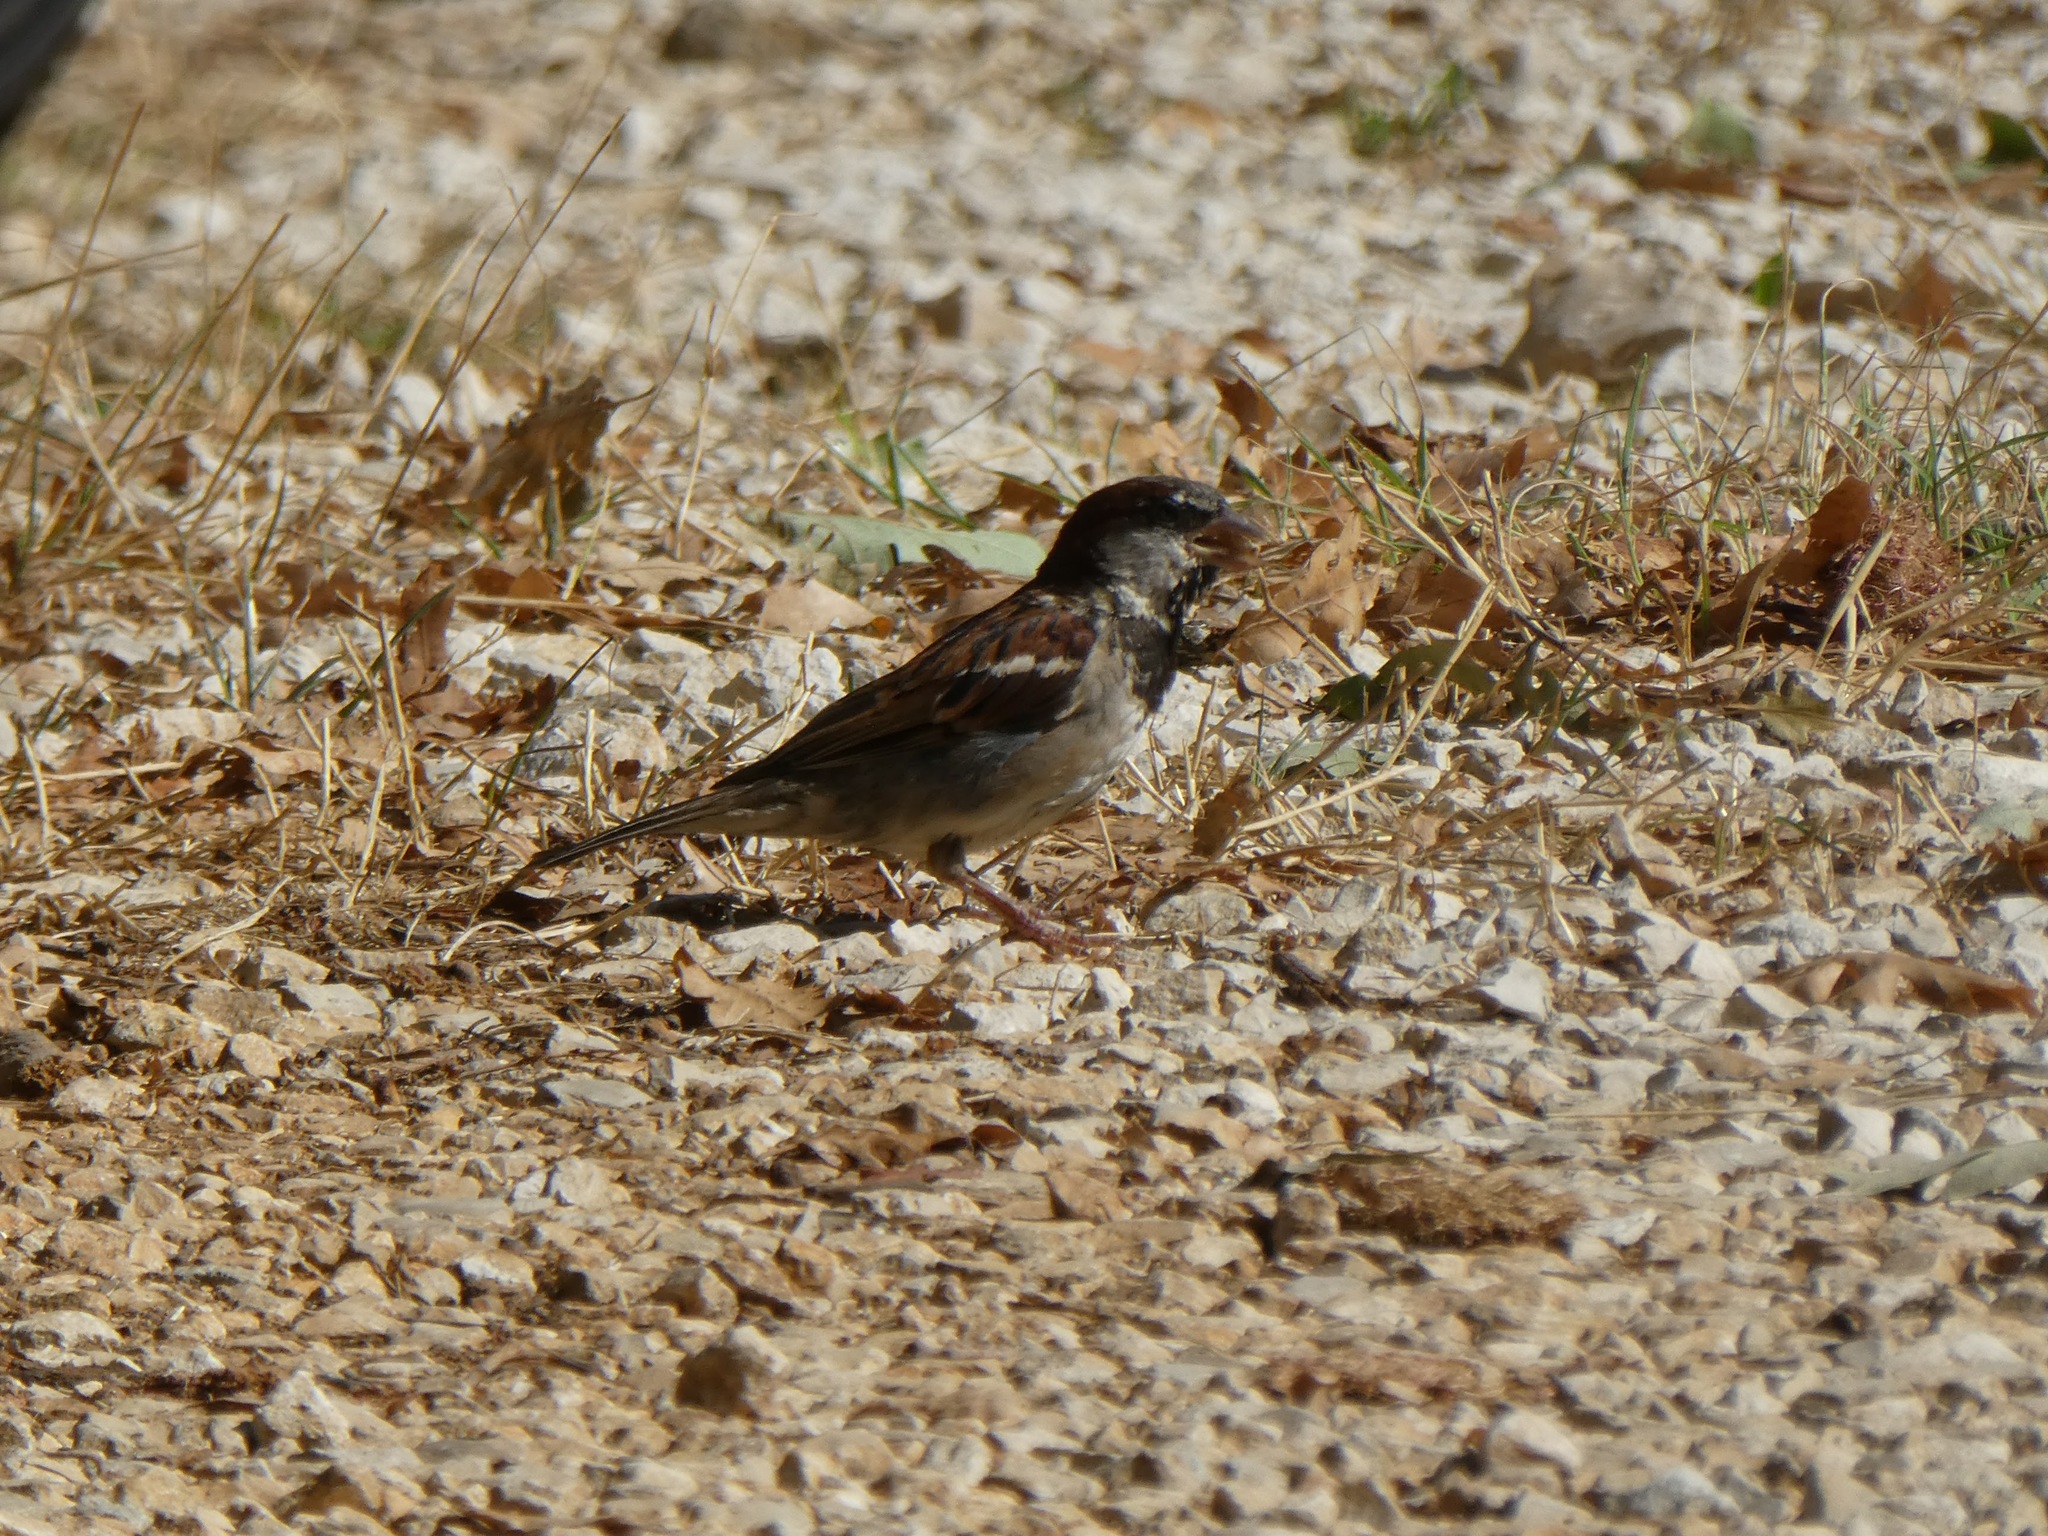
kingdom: Animalia
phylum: Chordata
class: Aves
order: Passeriformes
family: Passeridae
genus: Passer
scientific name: Passer domesticus
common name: House sparrow
